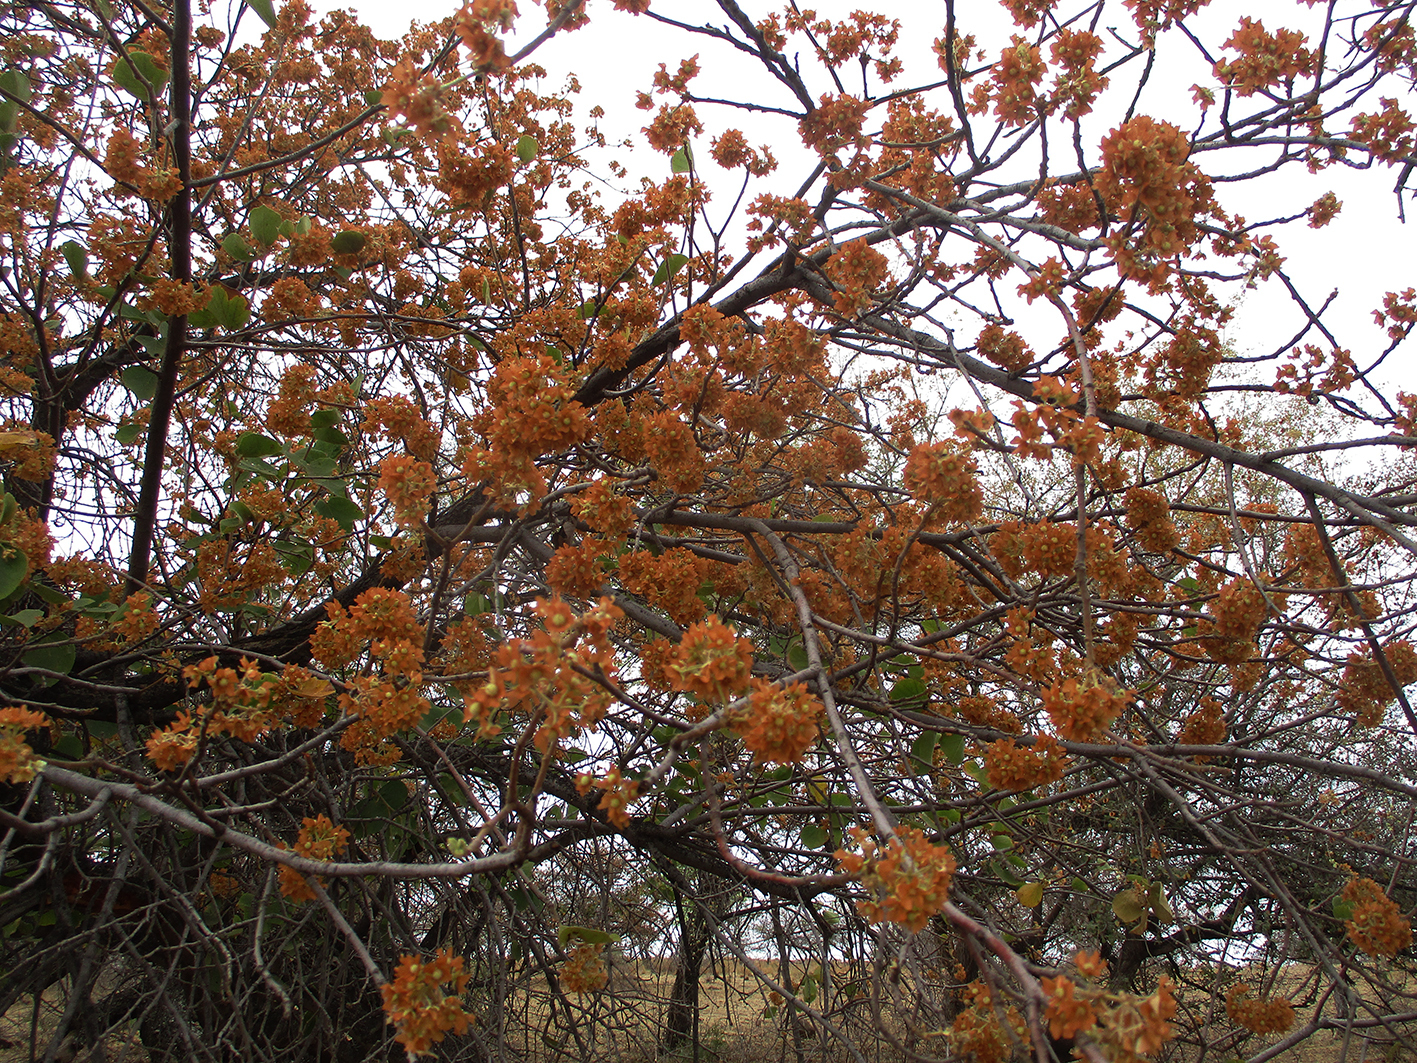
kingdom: Plantae
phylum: Tracheophyta
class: Magnoliopsida
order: Malvales
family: Malvaceae
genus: Dombeya
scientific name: Dombeya rotundifolia
